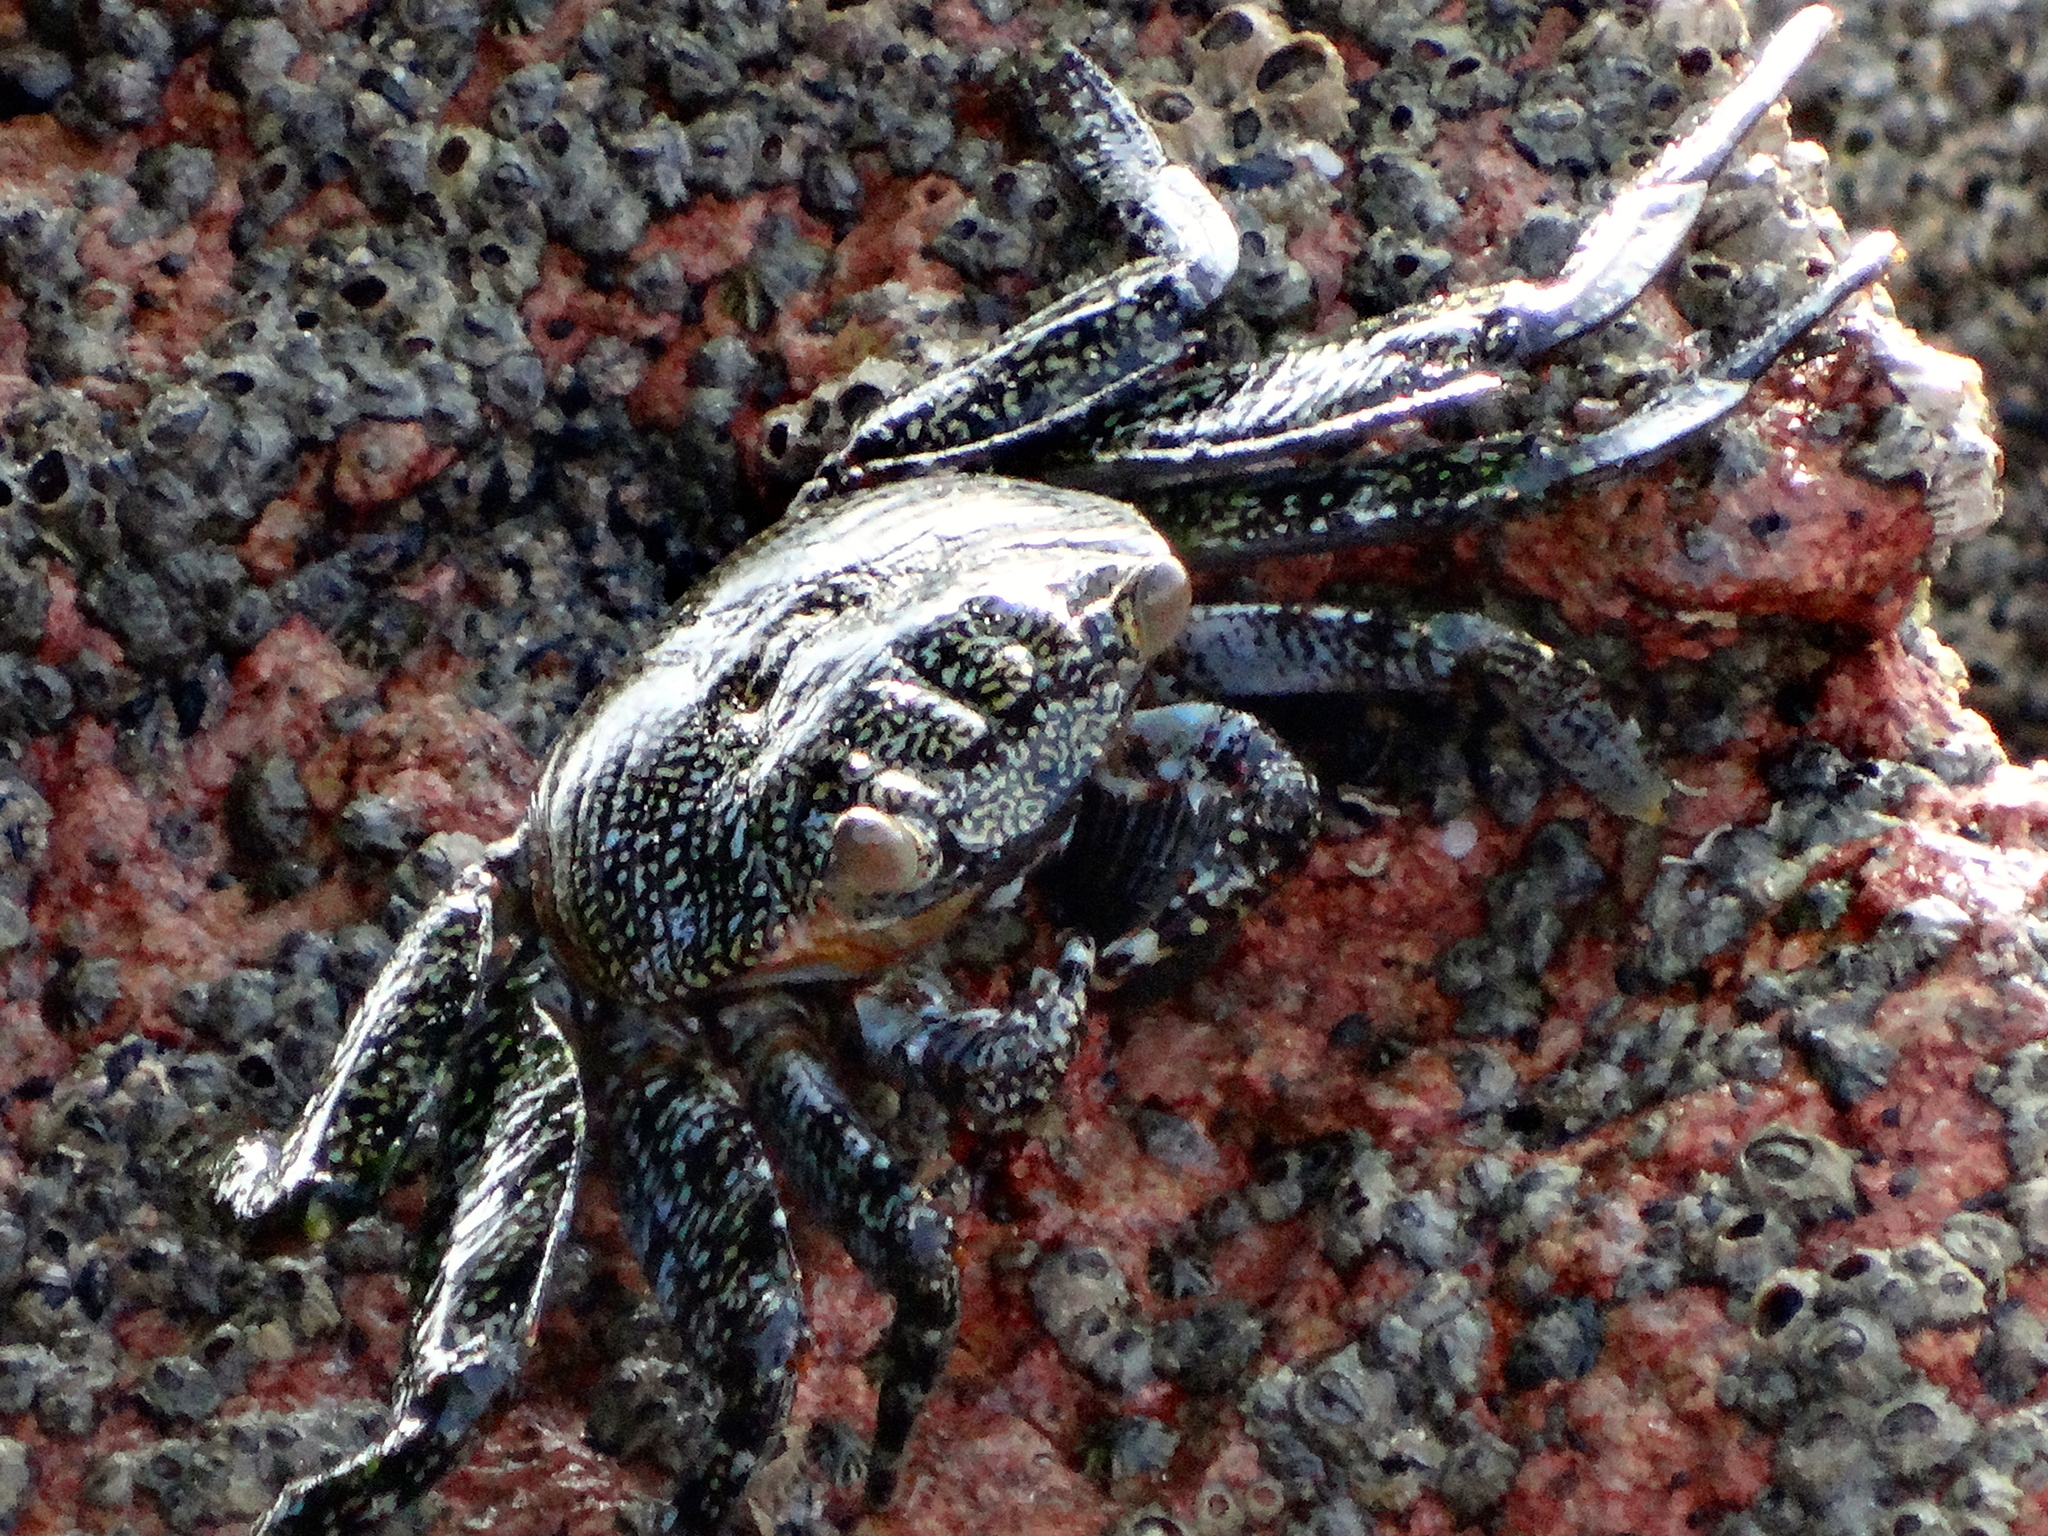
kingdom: Animalia
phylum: Arthropoda
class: Malacostraca
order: Decapoda
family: Grapsidae
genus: Grapsus
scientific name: Grapsus grapsus
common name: Sally lightfoot
